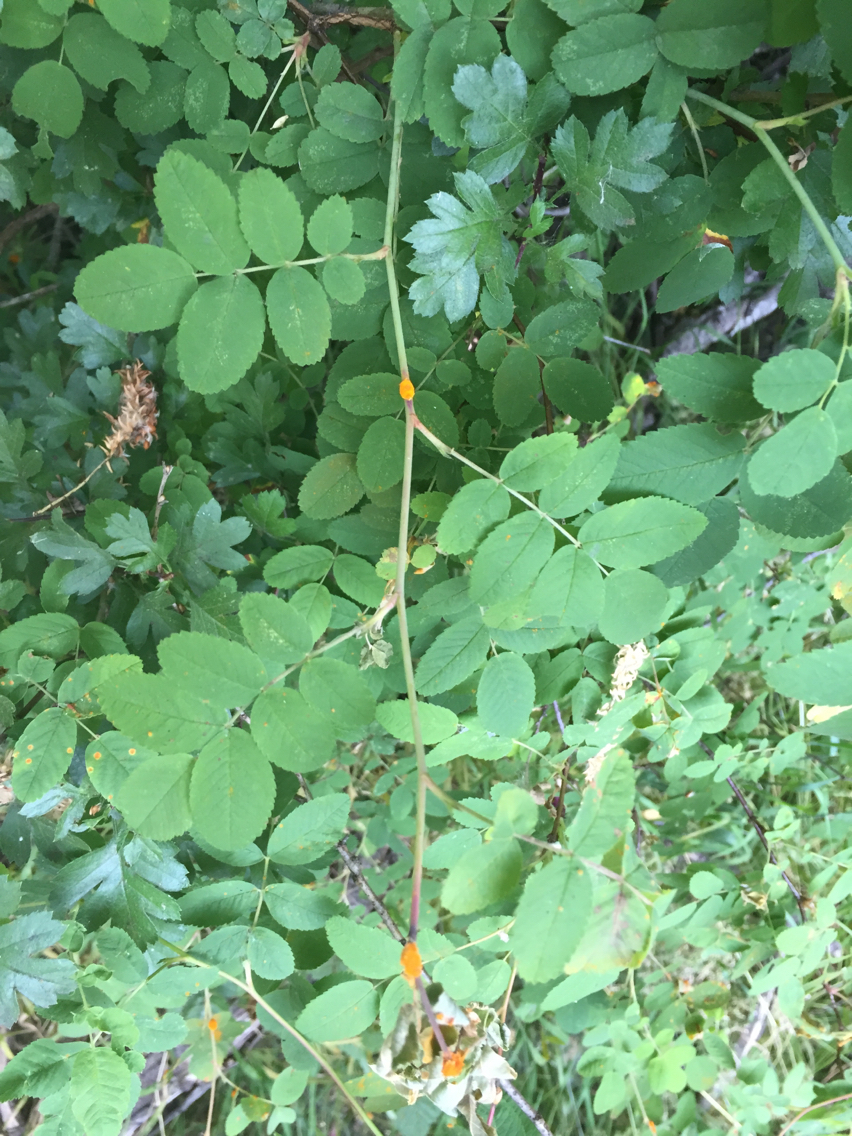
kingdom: Plantae
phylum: Tracheophyta
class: Magnoliopsida
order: Rosales
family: Rosaceae
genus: Rosa
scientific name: Rosa nutkana
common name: Nootka rose
